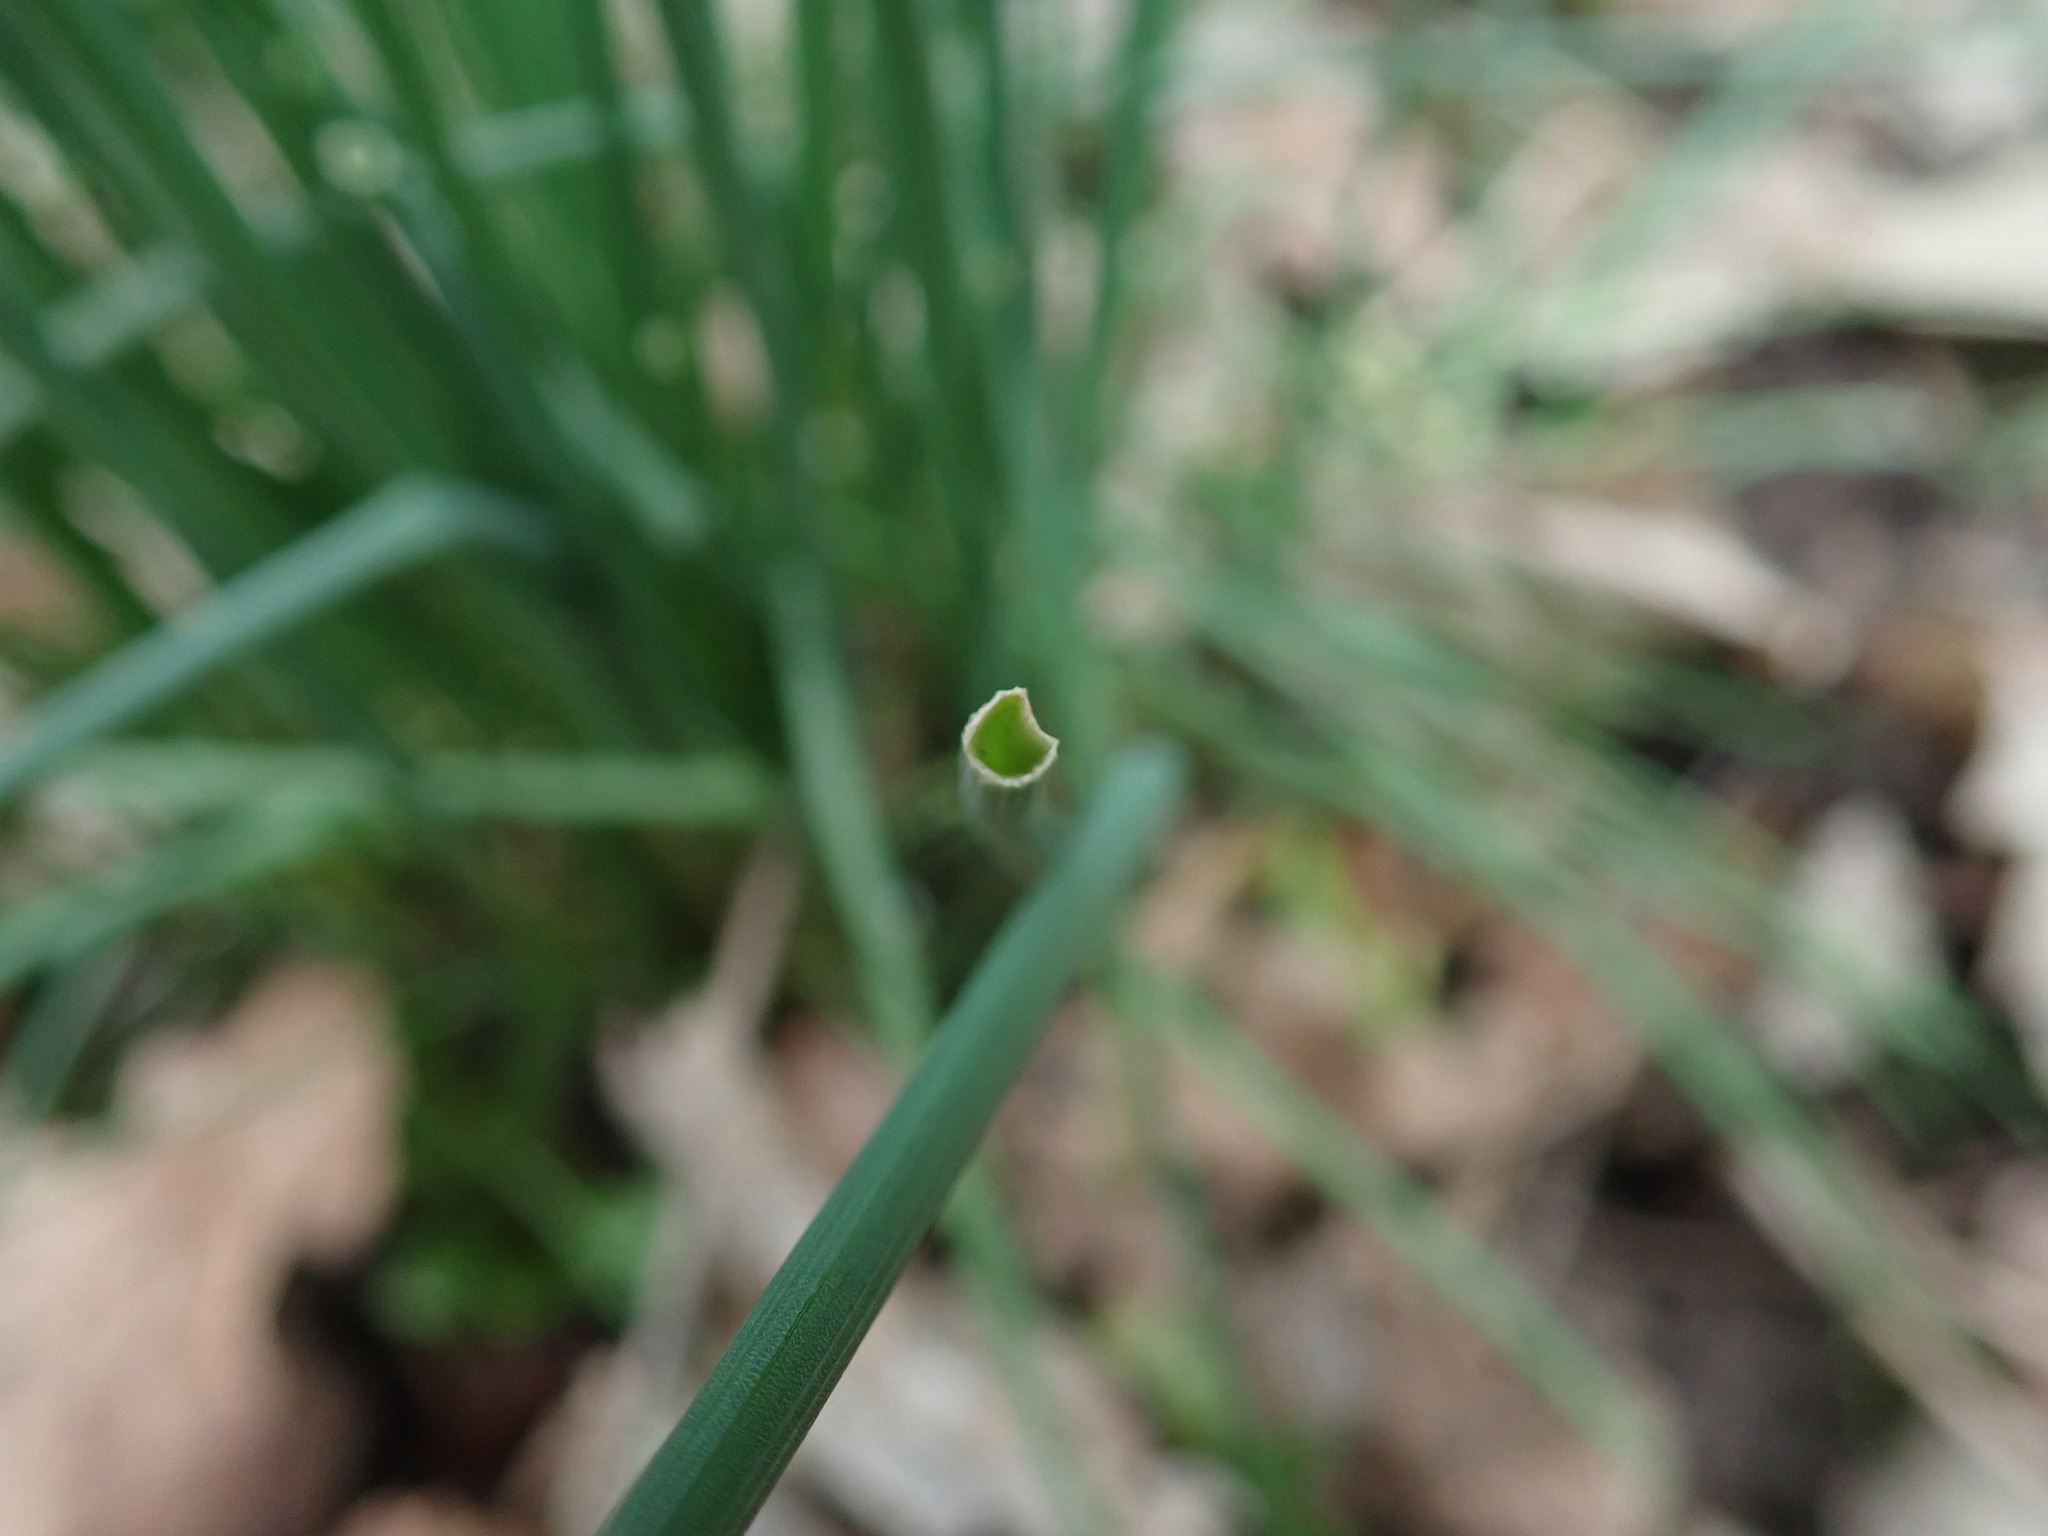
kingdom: Plantae
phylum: Tracheophyta
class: Liliopsida
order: Asparagales
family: Amaryllidaceae
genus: Allium
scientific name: Allium vineale
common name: Crow garlic
